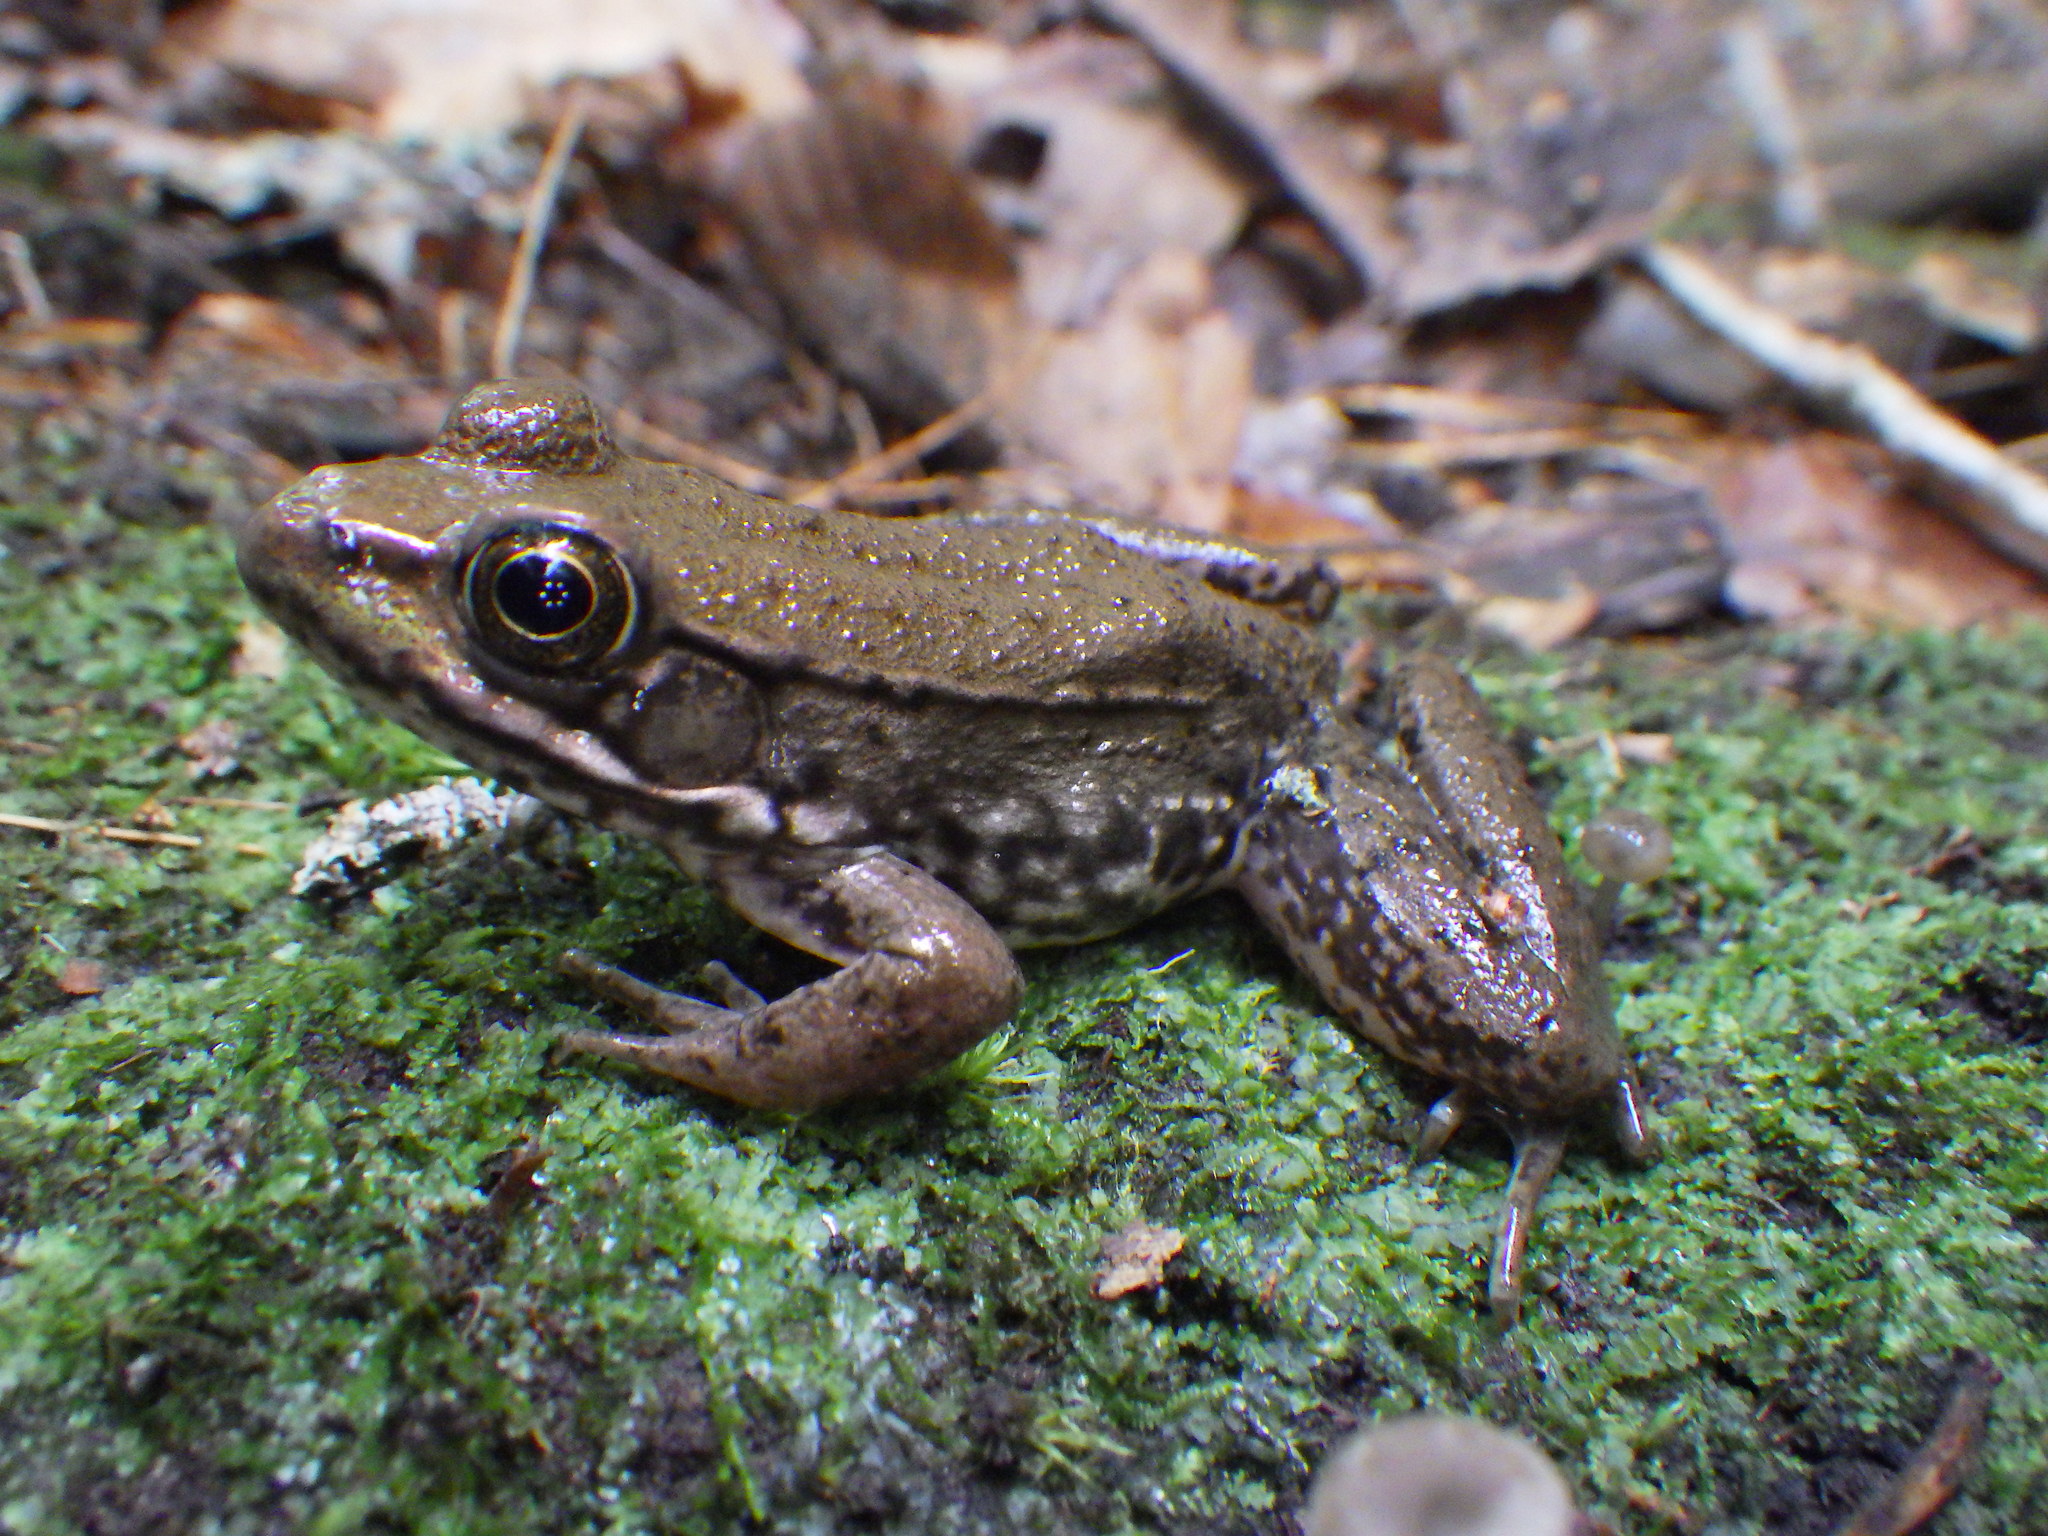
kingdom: Animalia
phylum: Chordata
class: Amphibia
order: Anura
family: Ranidae
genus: Lithobates
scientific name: Lithobates clamitans
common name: Green frog
